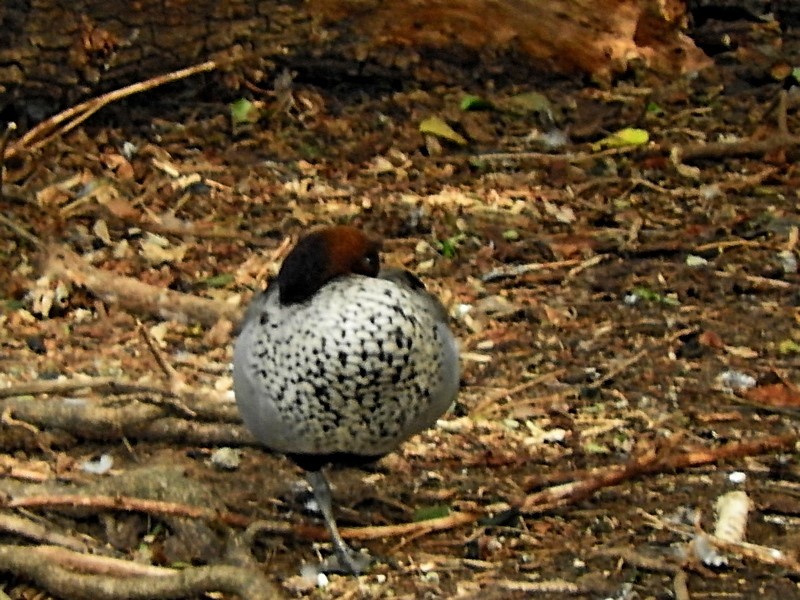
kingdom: Animalia
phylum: Chordata
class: Aves
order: Anseriformes
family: Anatidae
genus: Chenonetta
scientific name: Chenonetta jubata
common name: Maned duck
